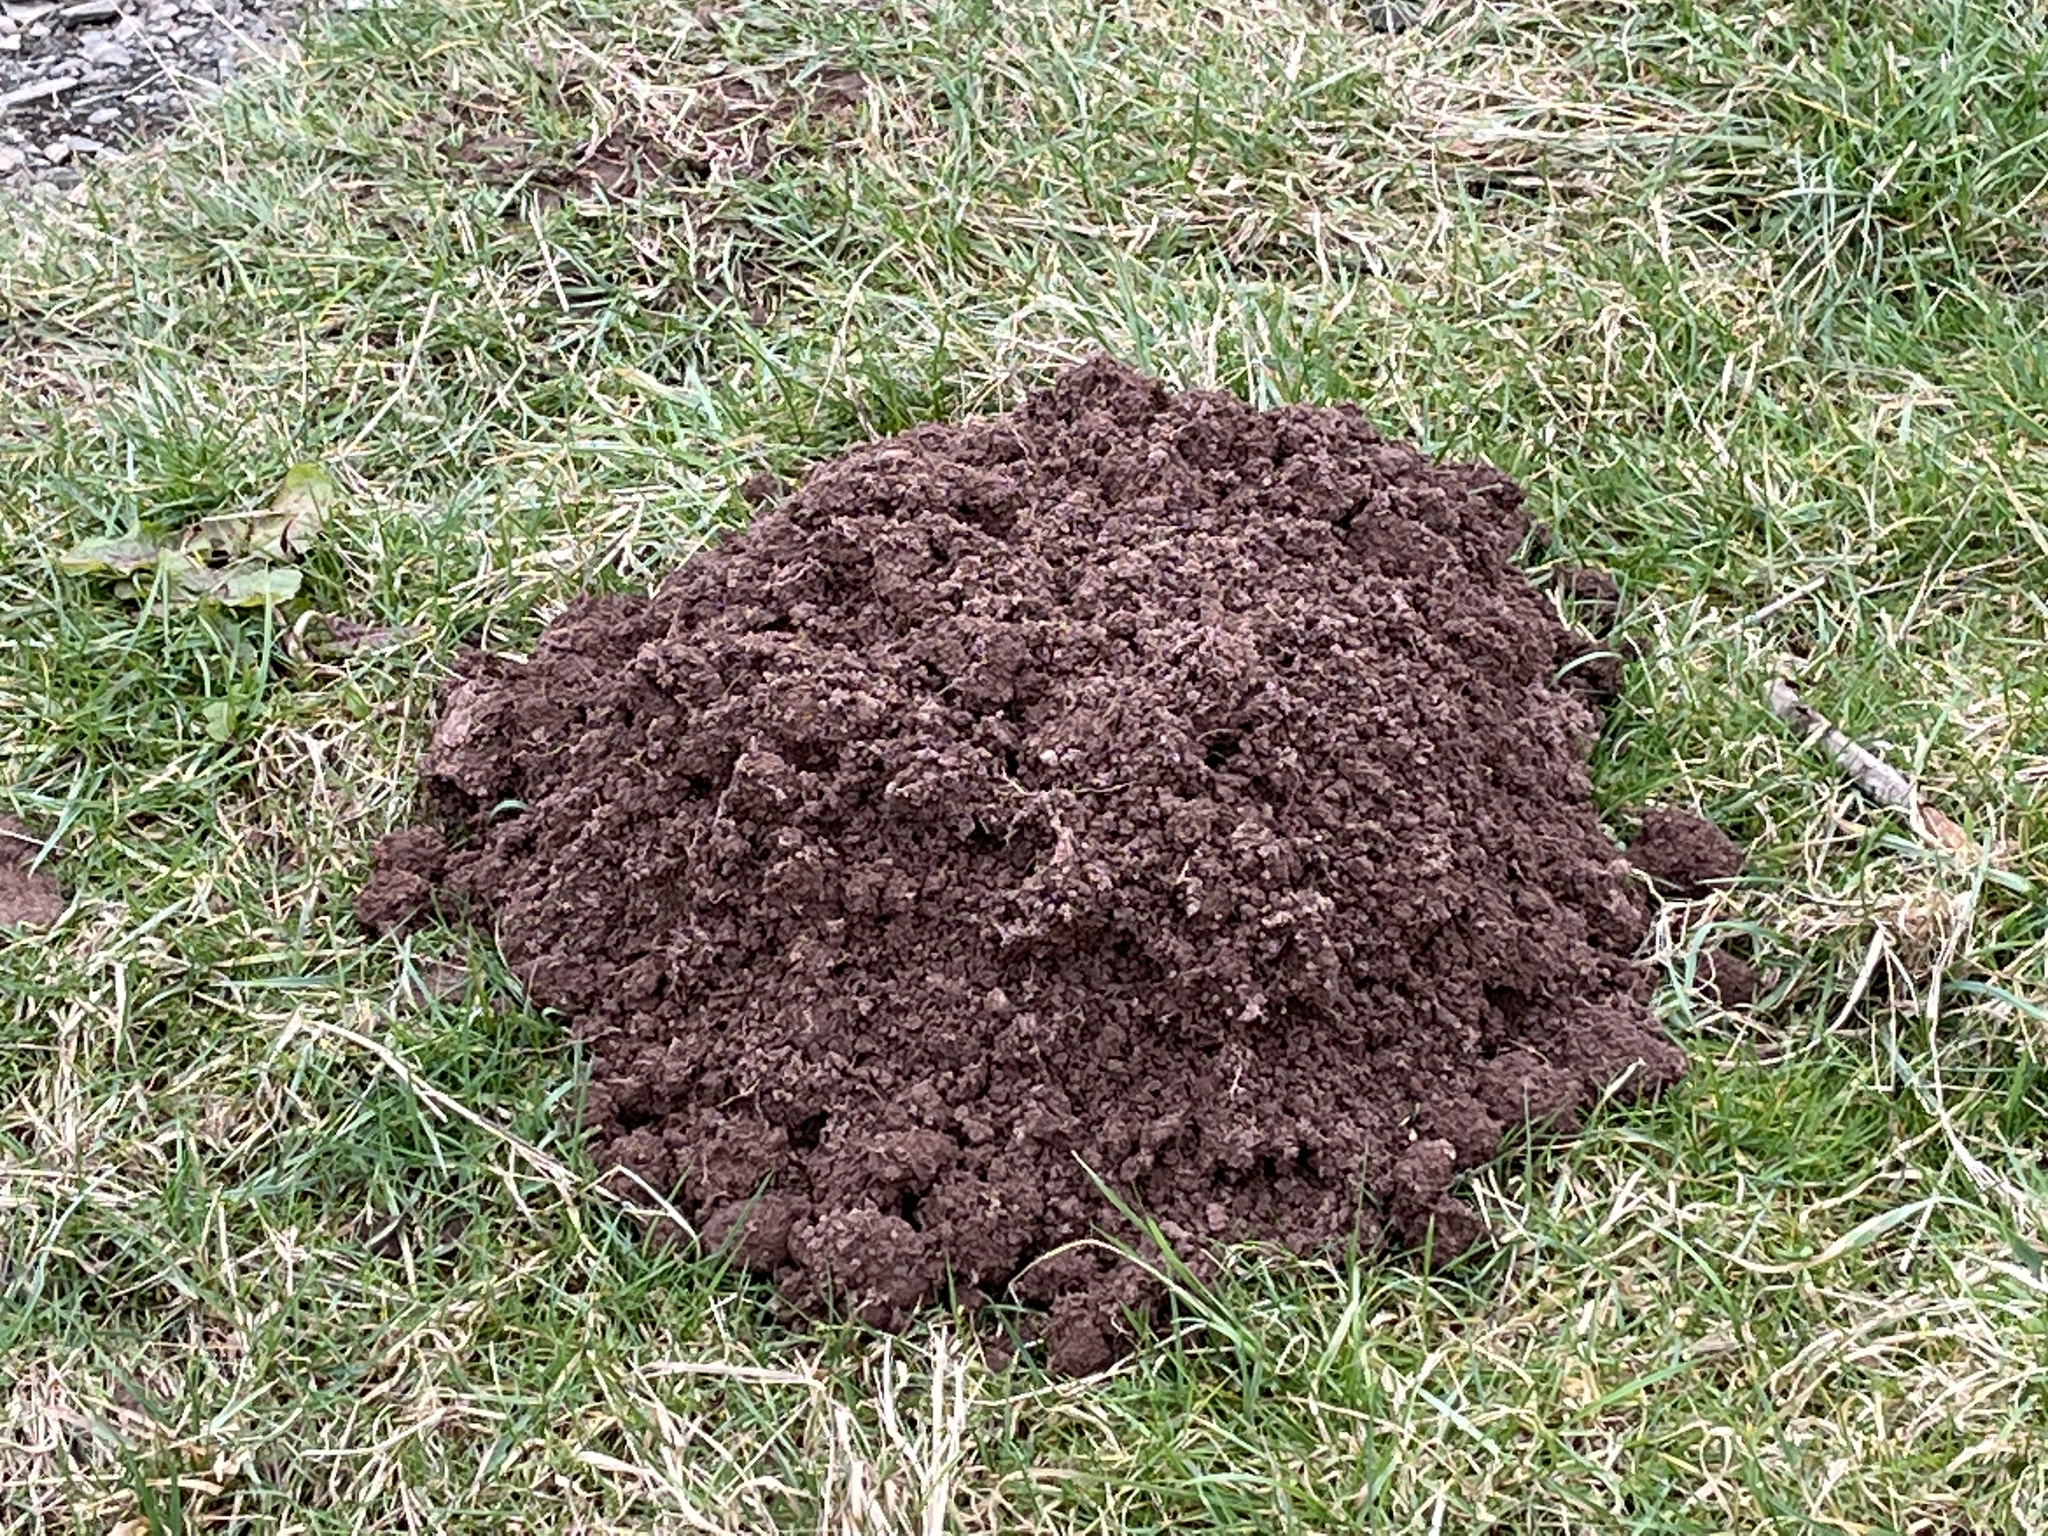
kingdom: Animalia
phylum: Chordata
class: Mammalia
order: Soricomorpha
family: Talpidae
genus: Talpa
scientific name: Talpa europaea
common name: European mole
